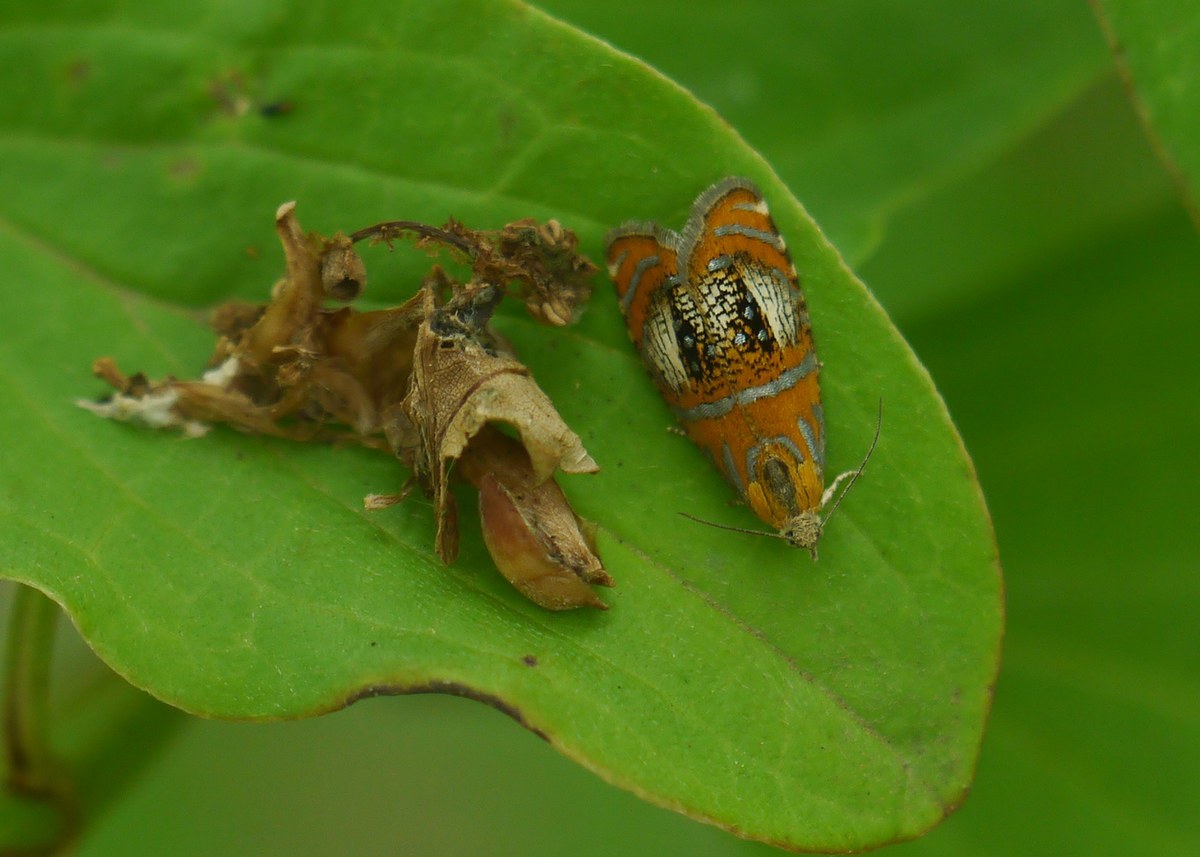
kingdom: Animalia
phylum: Arthropoda
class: Insecta
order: Lepidoptera
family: Tortricidae
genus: Olethreutes
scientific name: Olethreutes arcuella
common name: Arched marble
